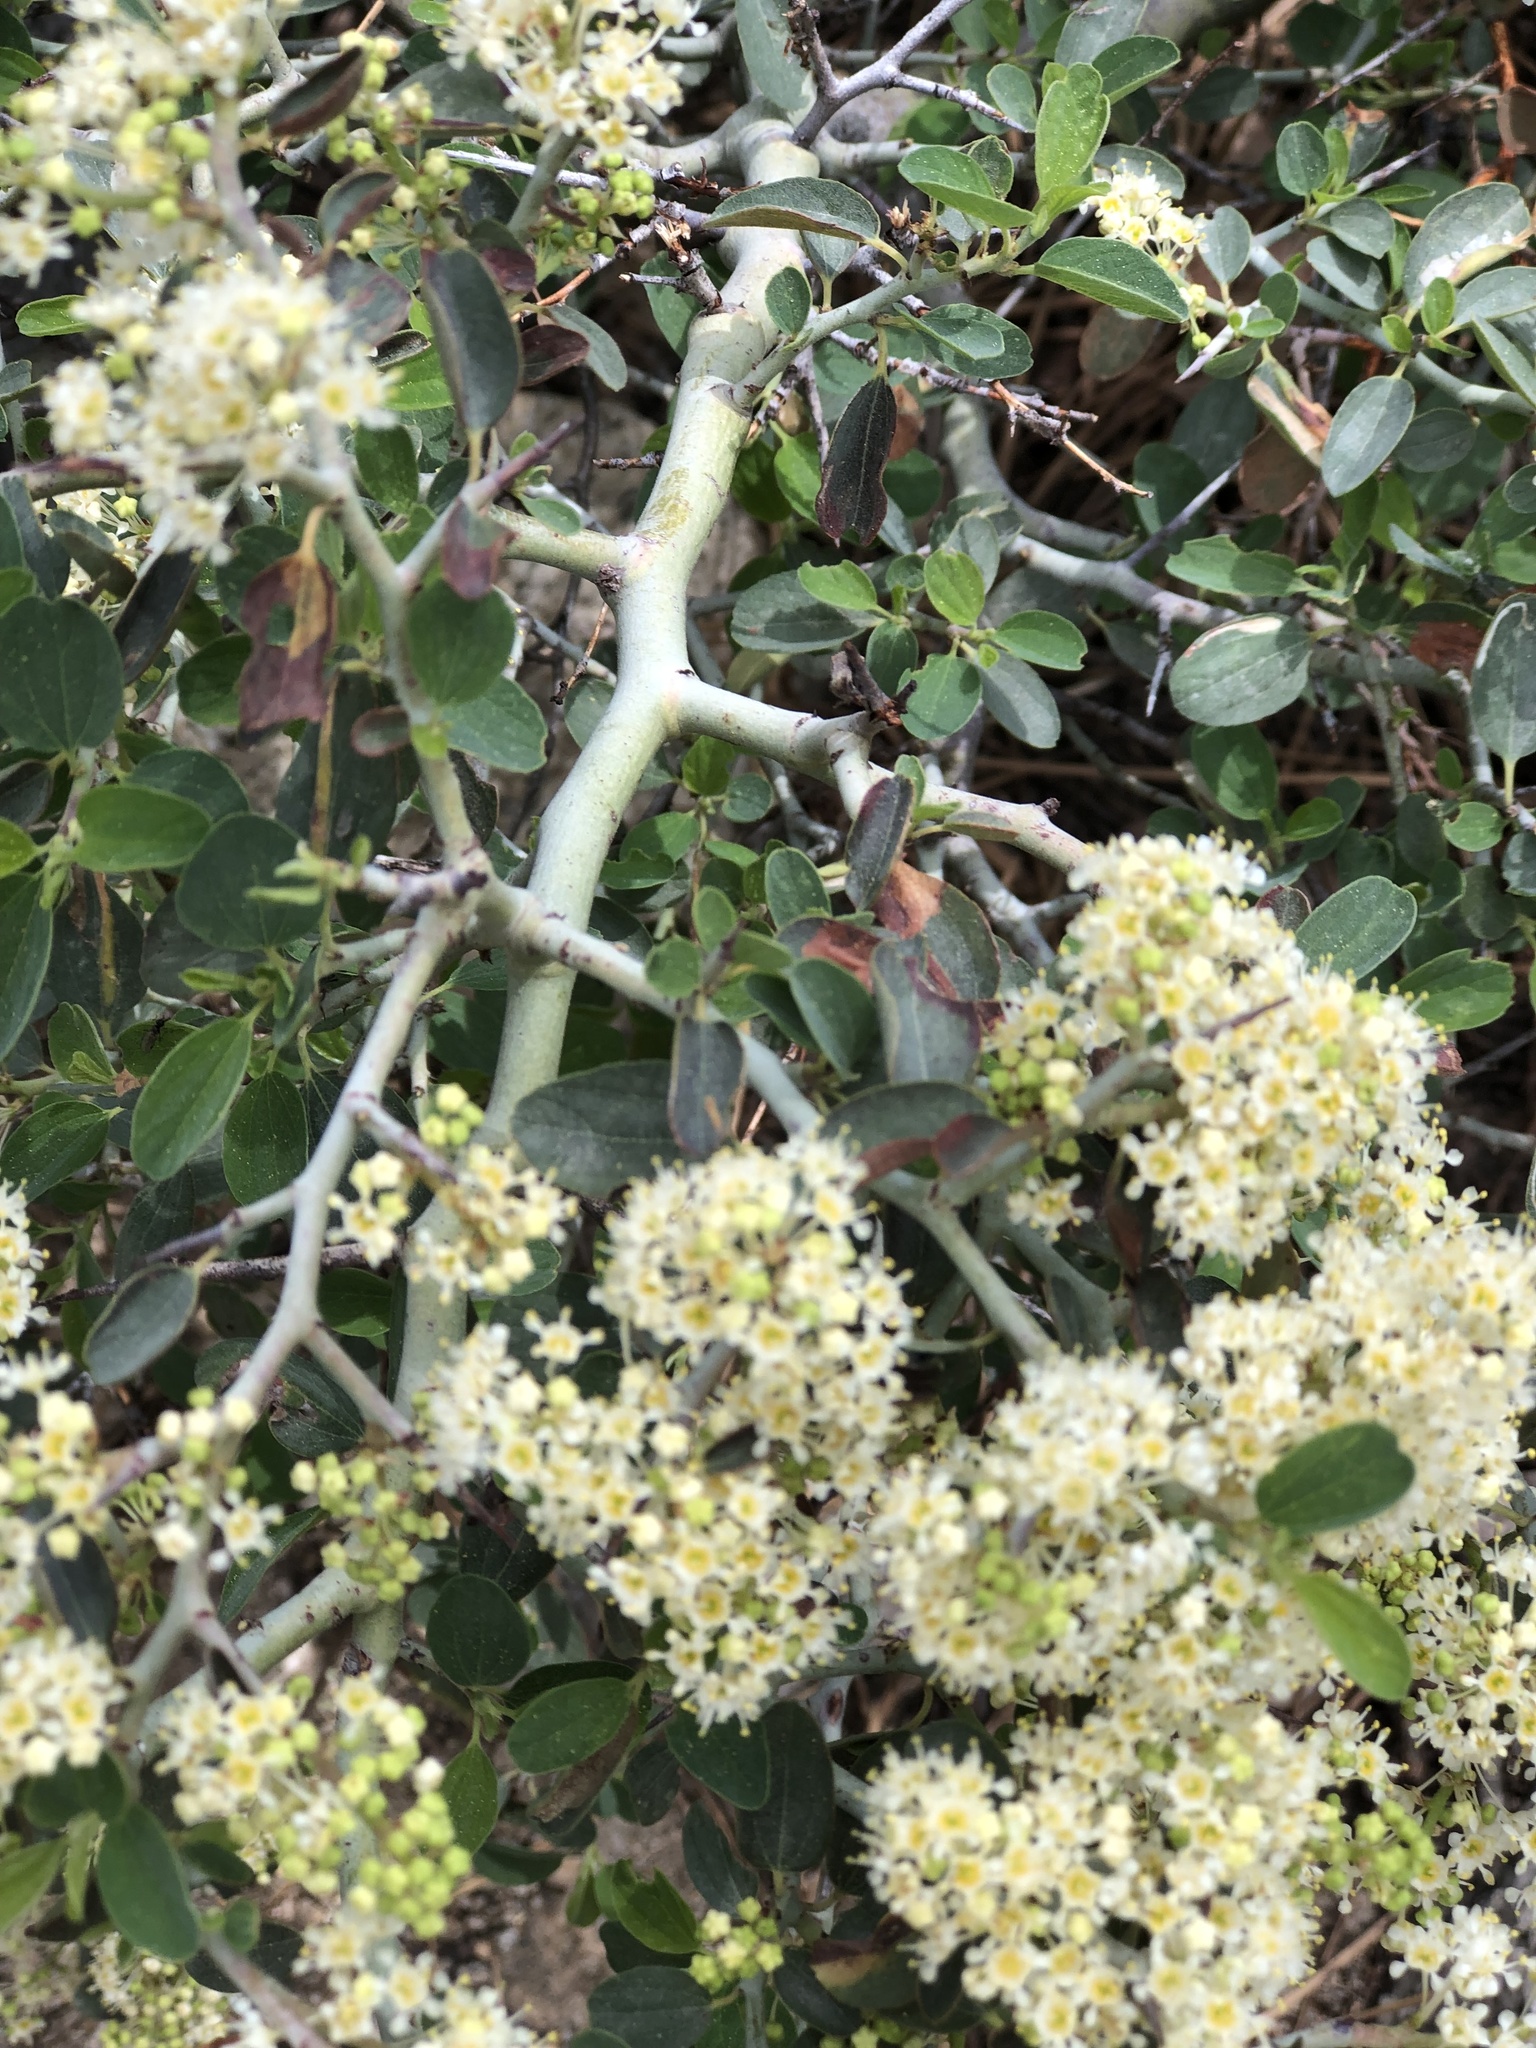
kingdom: Plantae
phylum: Tracheophyta
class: Magnoliopsida
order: Rosales
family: Rhamnaceae
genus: Ceanothus
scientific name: Ceanothus cordulatus
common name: Mountain whitethorn
